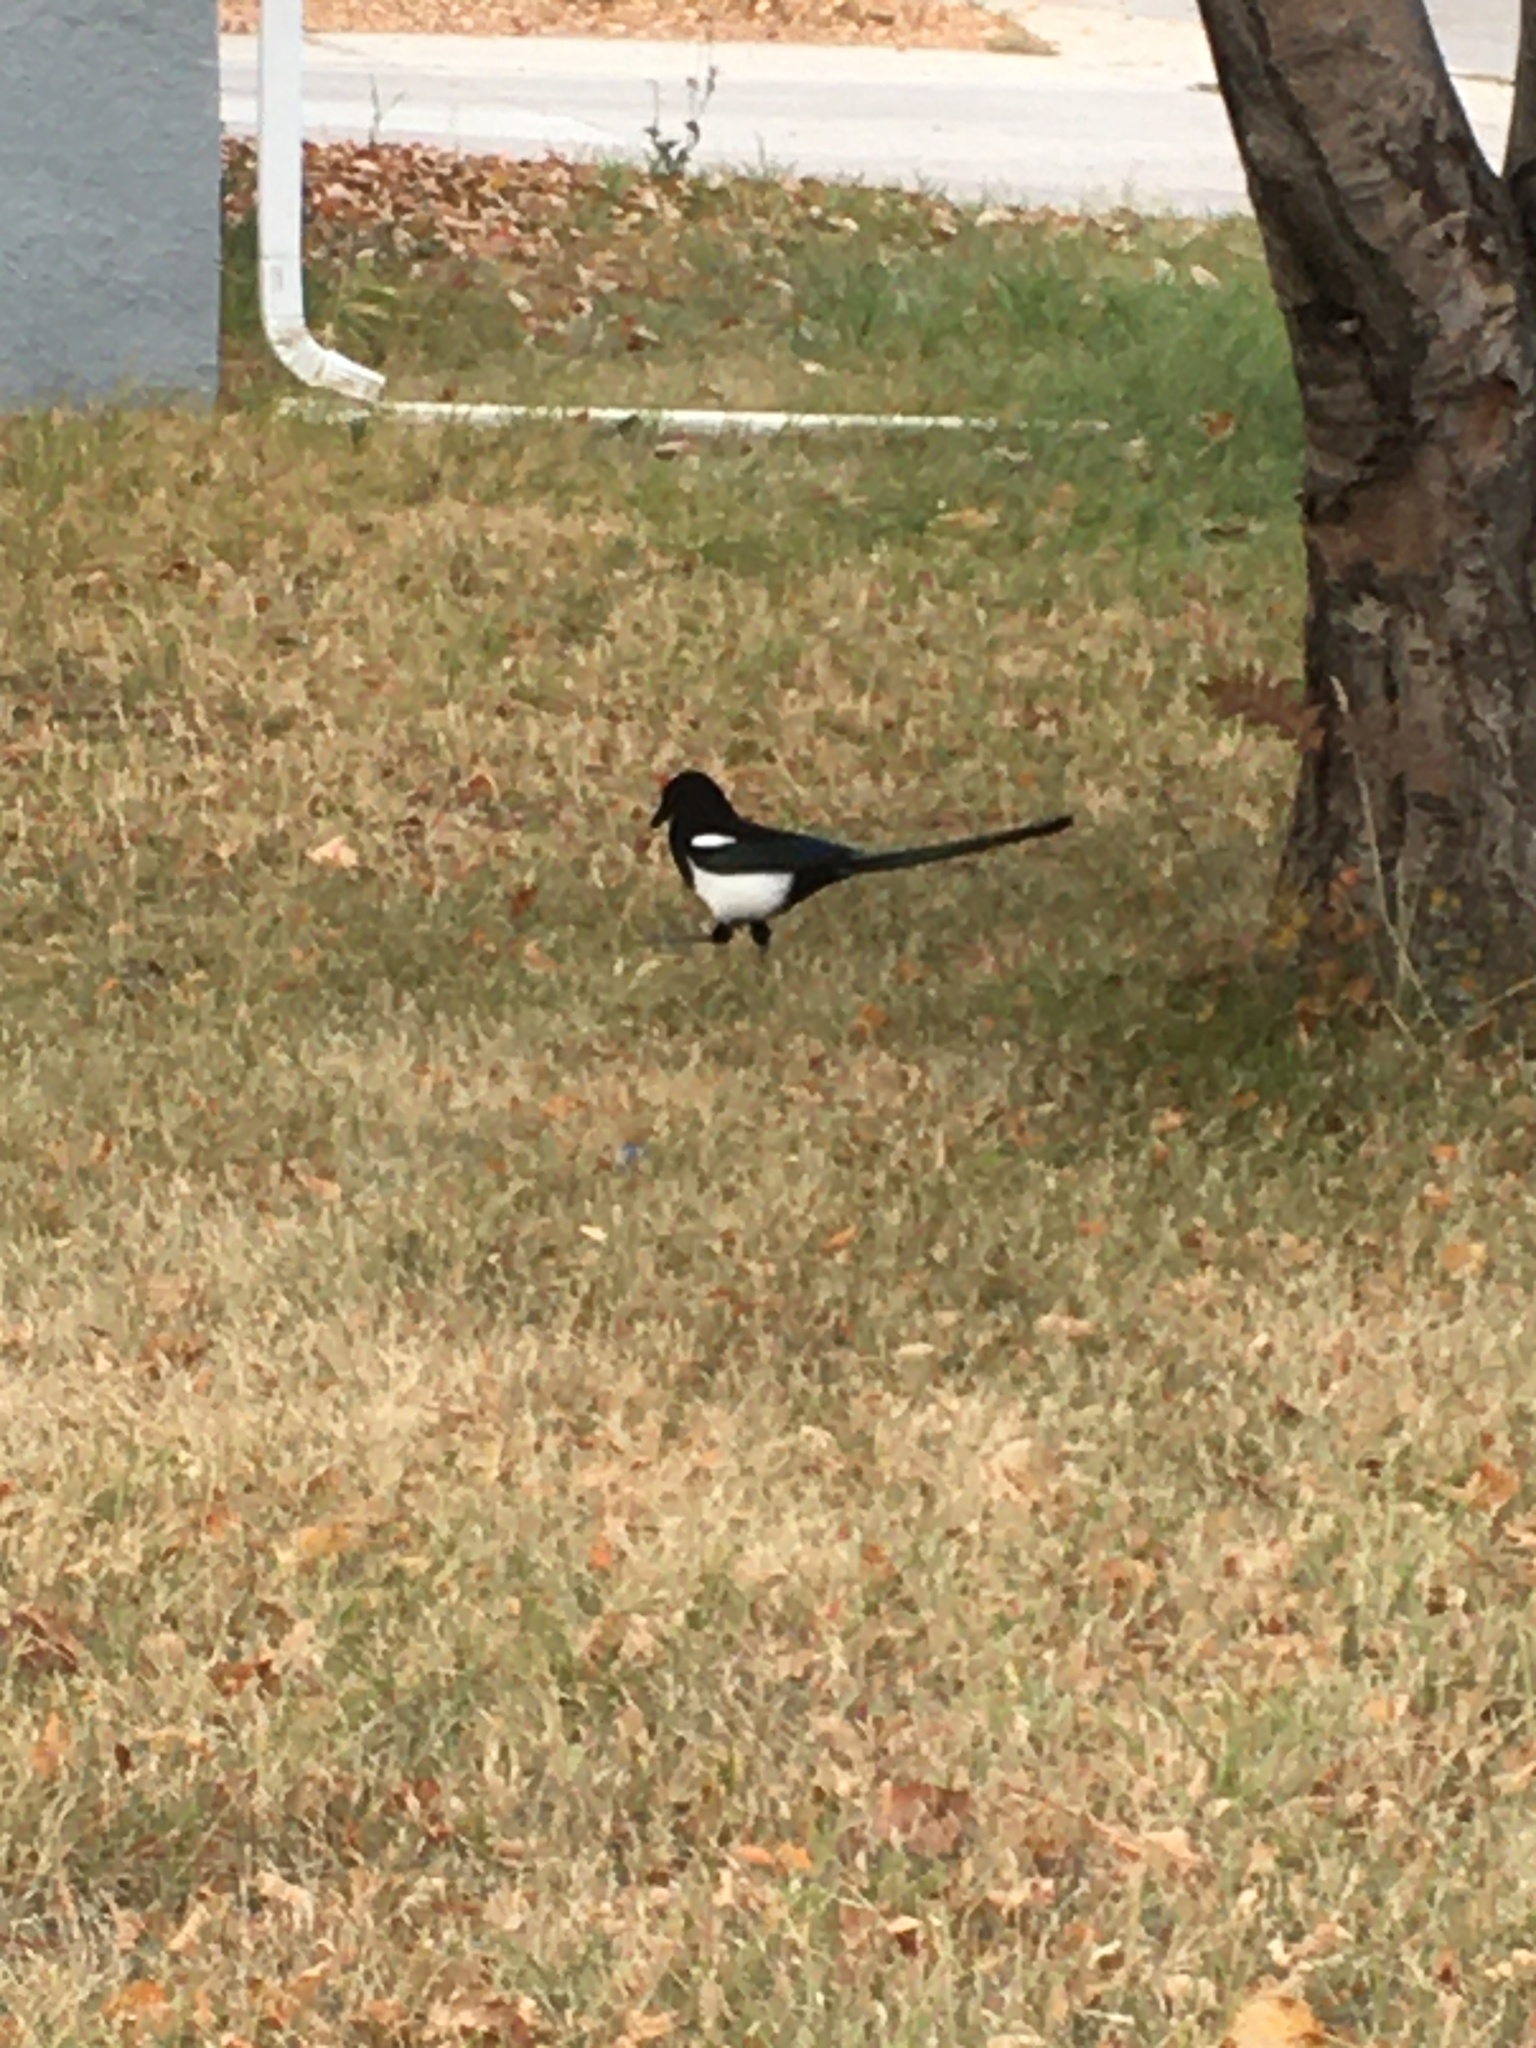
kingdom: Animalia
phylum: Chordata
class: Aves
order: Passeriformes
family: Corvidae
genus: Pica
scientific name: Pica hudsonia
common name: Black-billed magpie
